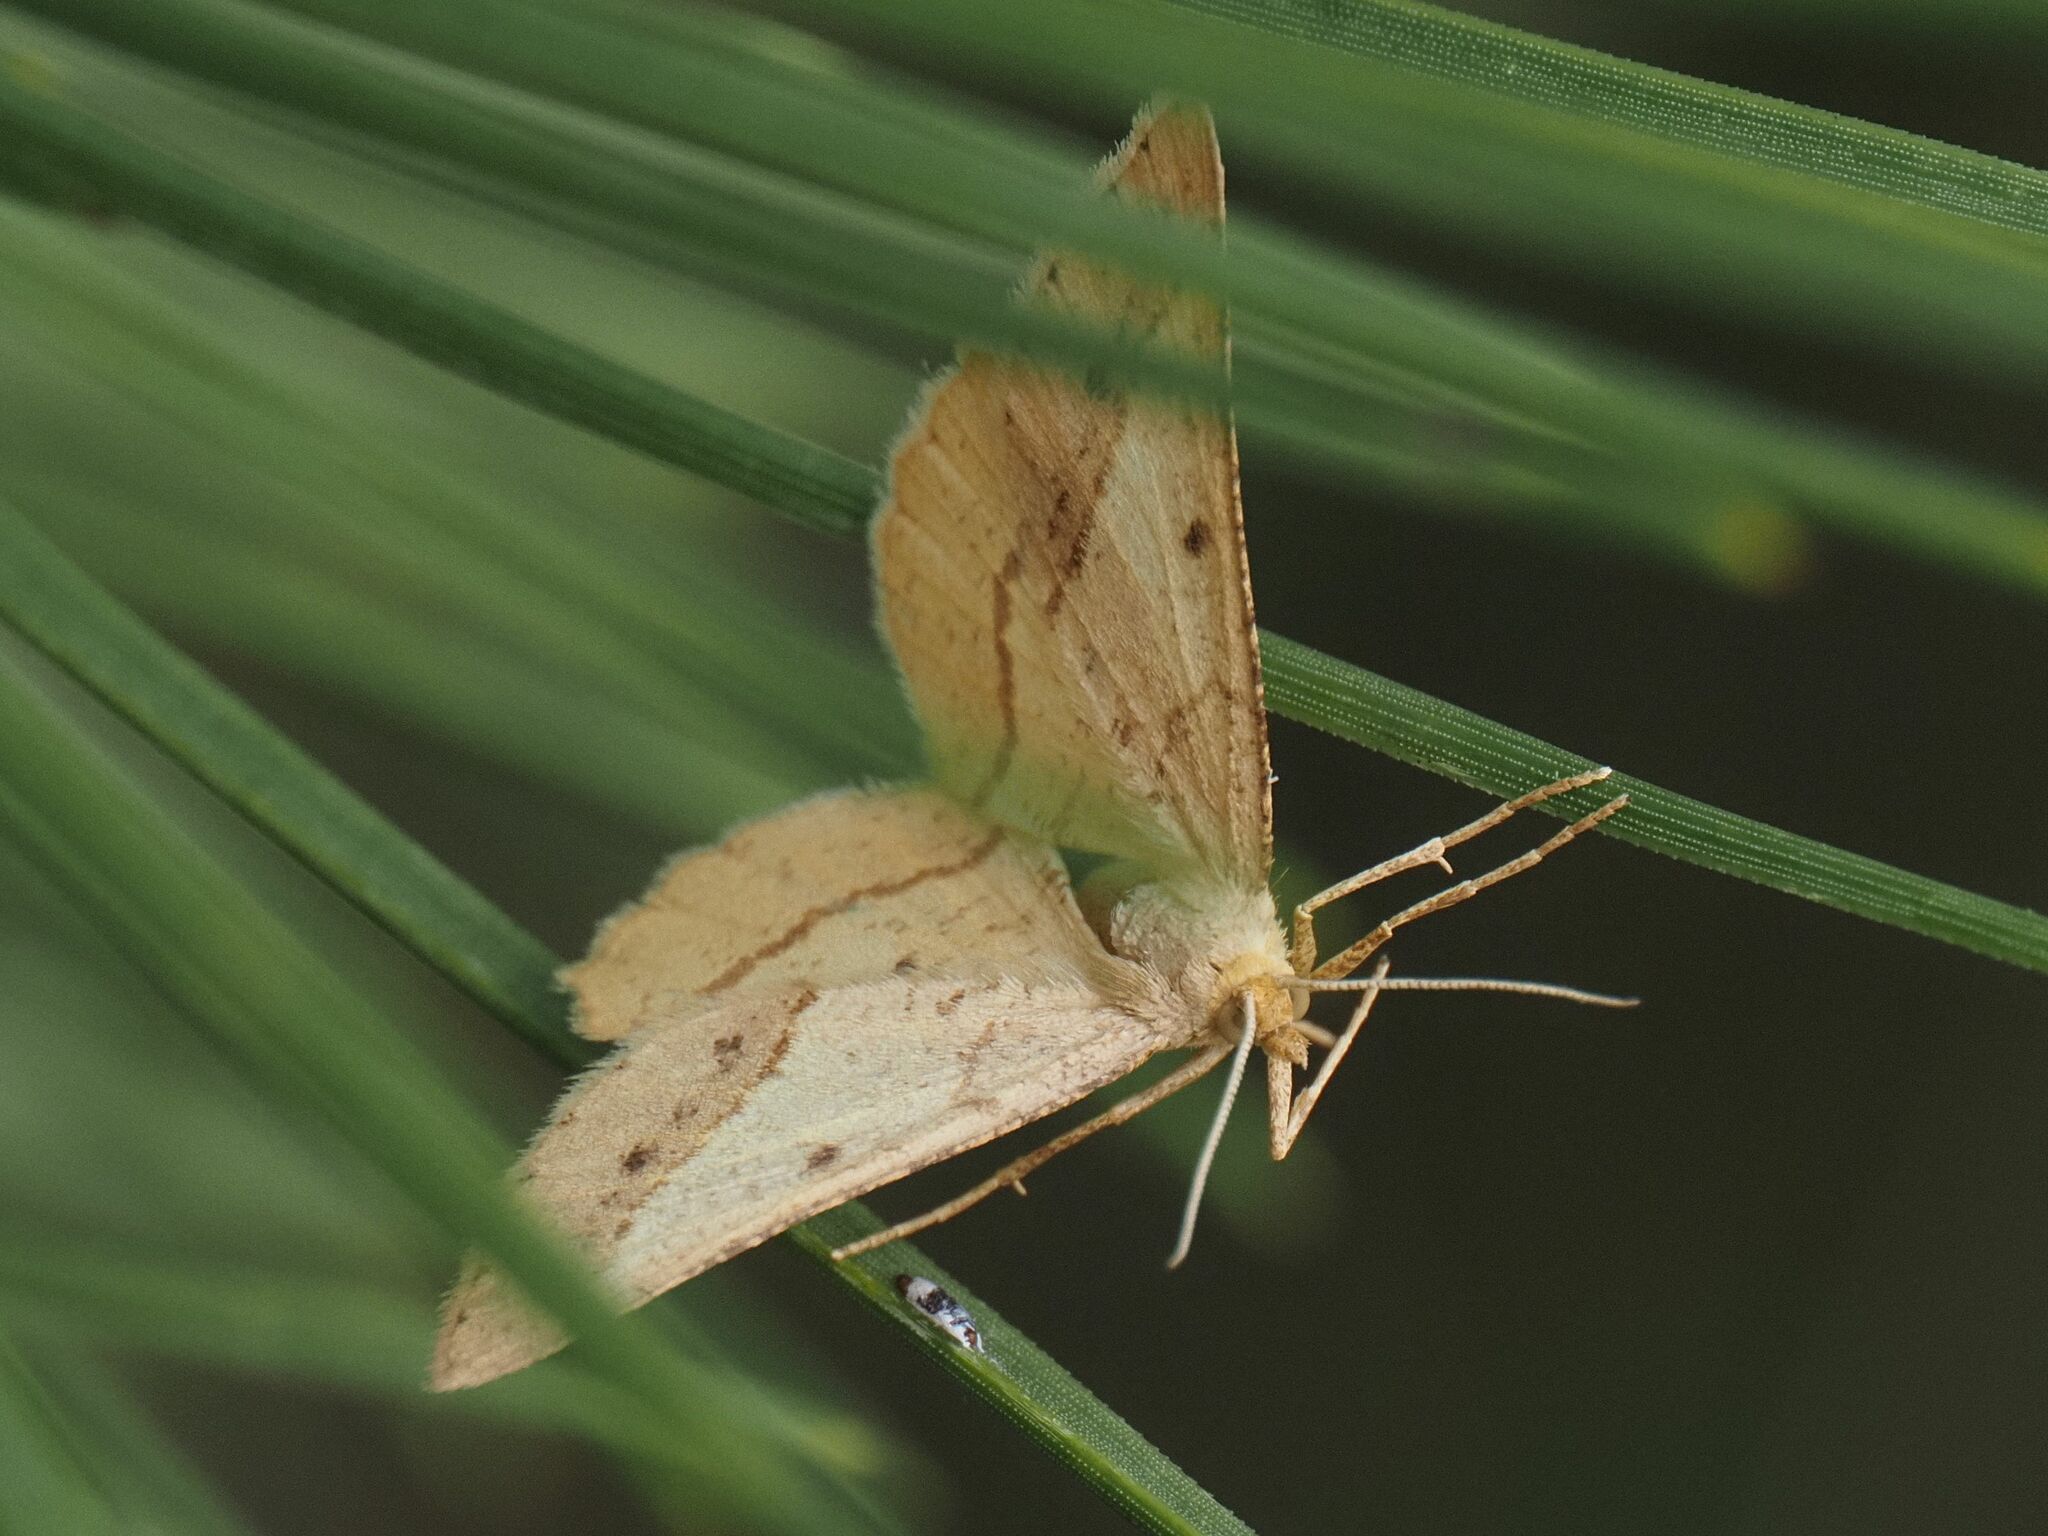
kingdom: Animalia
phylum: Arthropoda
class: Insecta
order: Lepidoptera
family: Geometridae
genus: Tephrina
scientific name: Tephrina arenacearia
